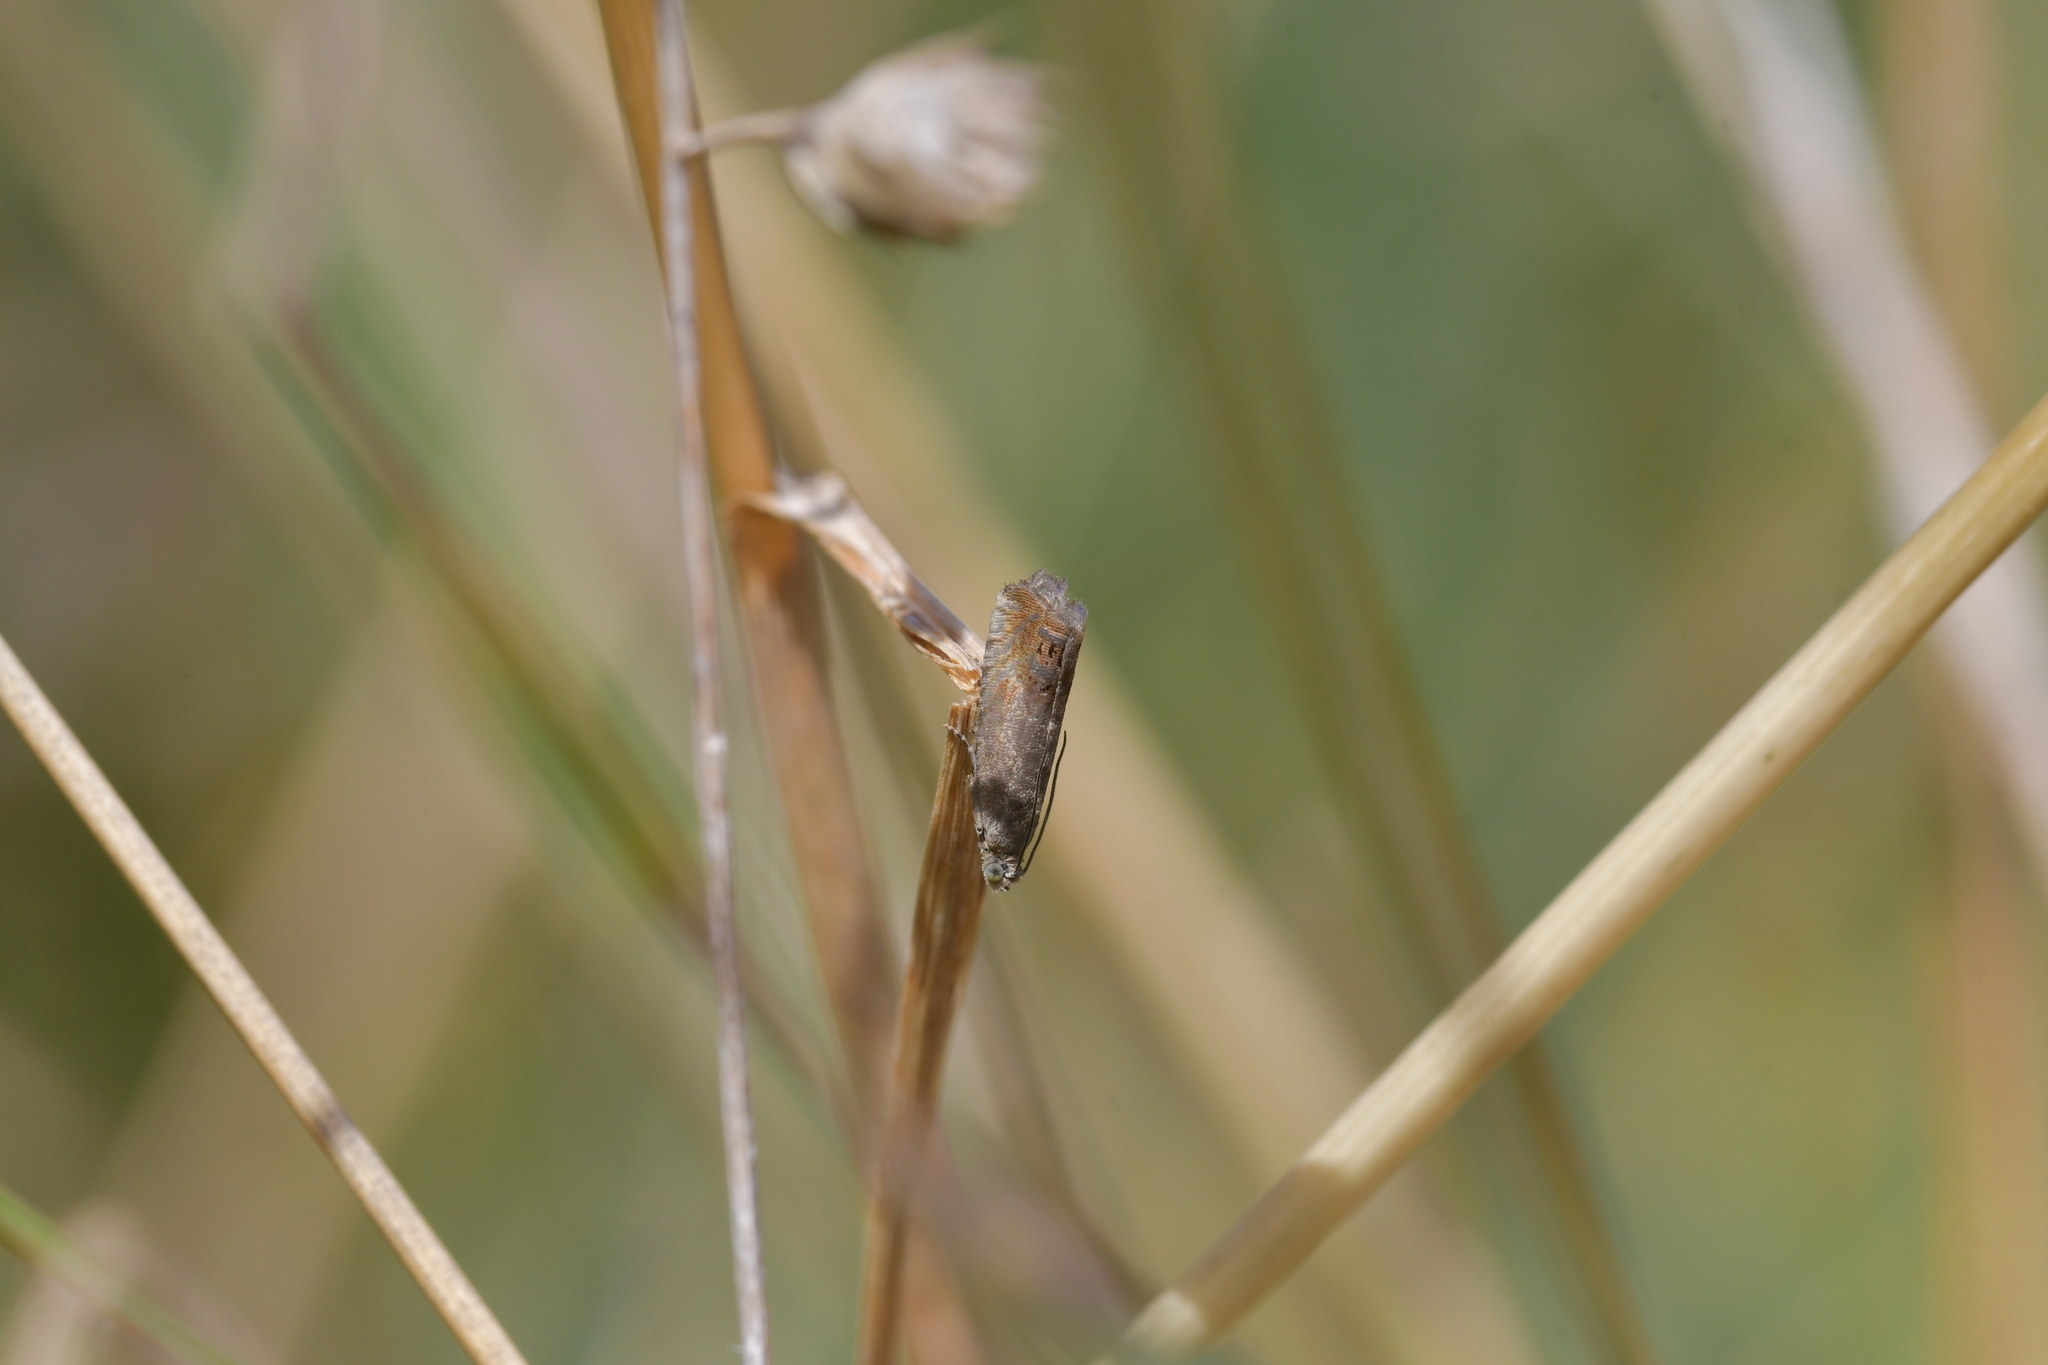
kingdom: Animalia
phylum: Arthropoda
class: Insecta
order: Lepidoptera
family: Tortricidae
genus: Cydia
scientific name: Cydia succedana
